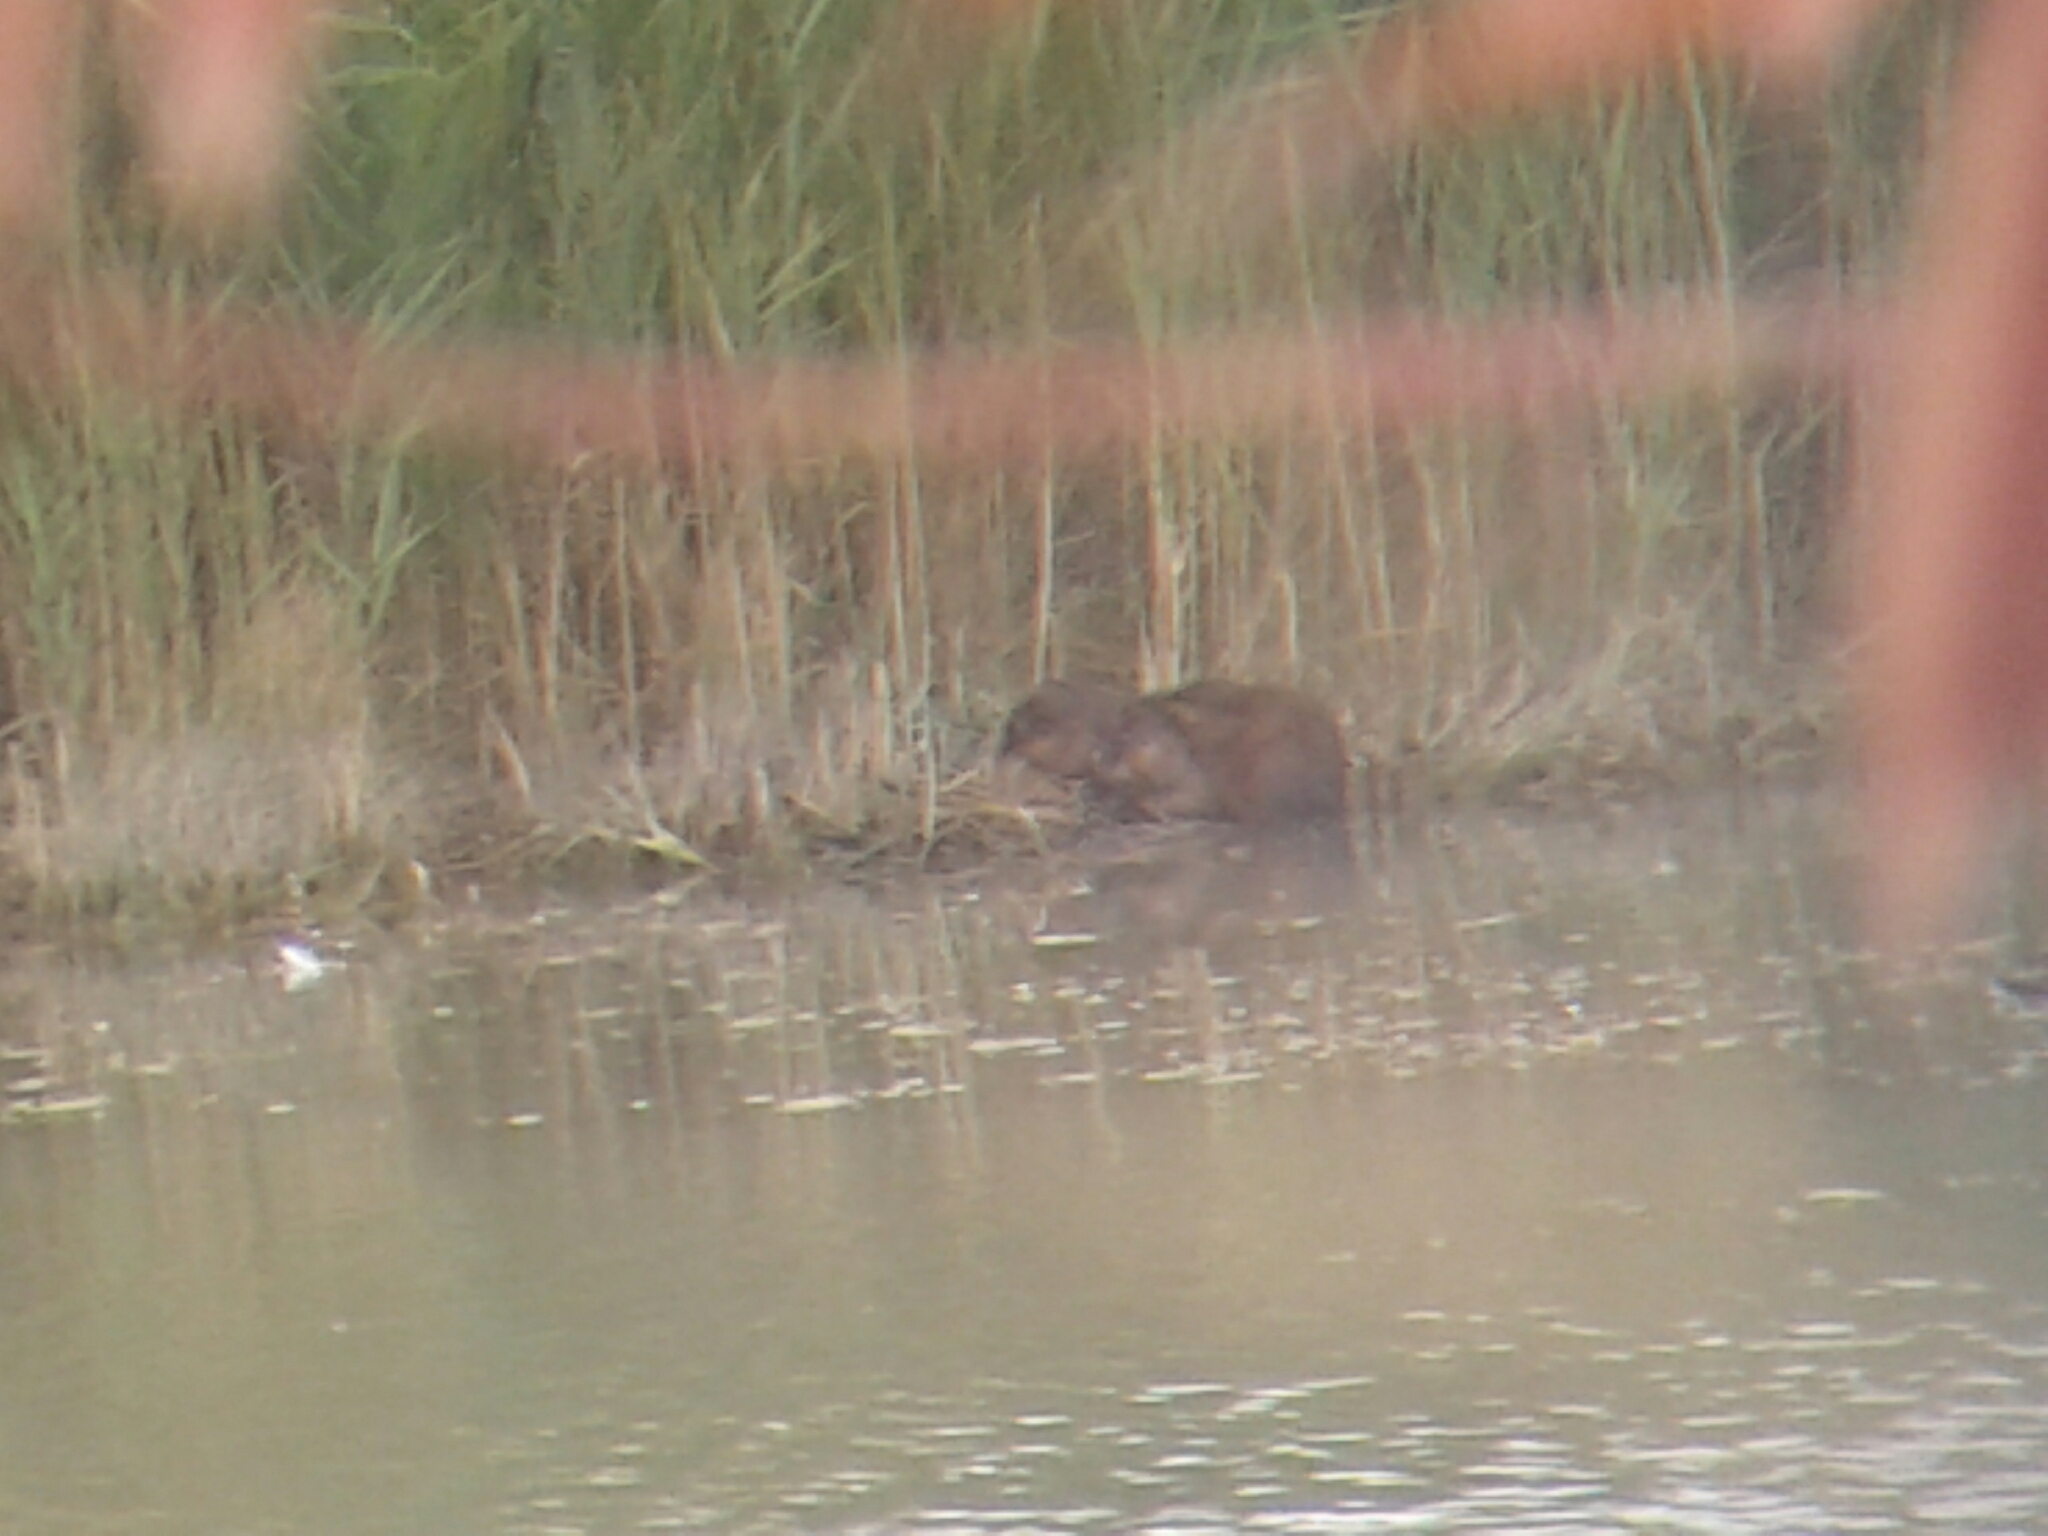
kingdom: Animalia
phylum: Chordata
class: Mammalia
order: Rodentia
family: Cricetidae
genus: Ondatra
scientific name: Ondatra zibethicus
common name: Muskrat
